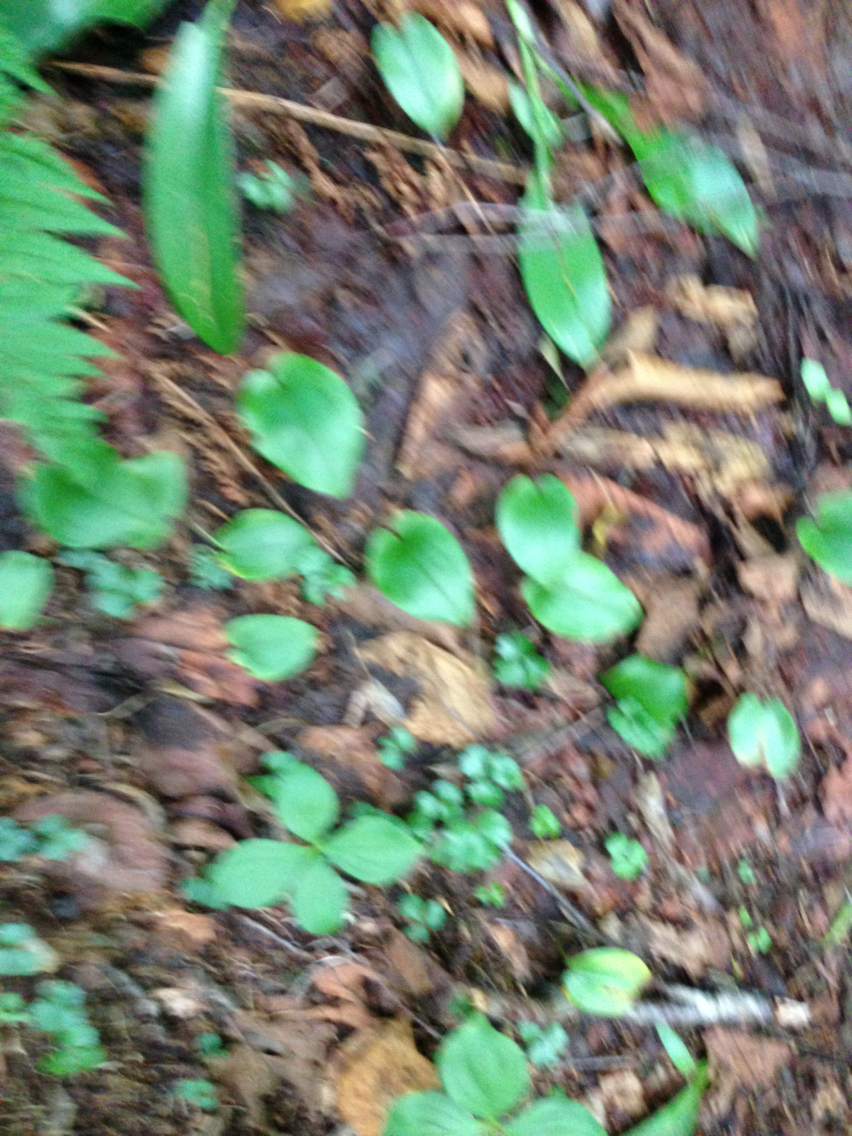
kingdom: Plantae
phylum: Tracheophyta
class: Liliopsida
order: Asparagales
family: Asparagaceae
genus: Maianthemum
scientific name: Maianthemum canadense
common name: False lily-of-the-valley
